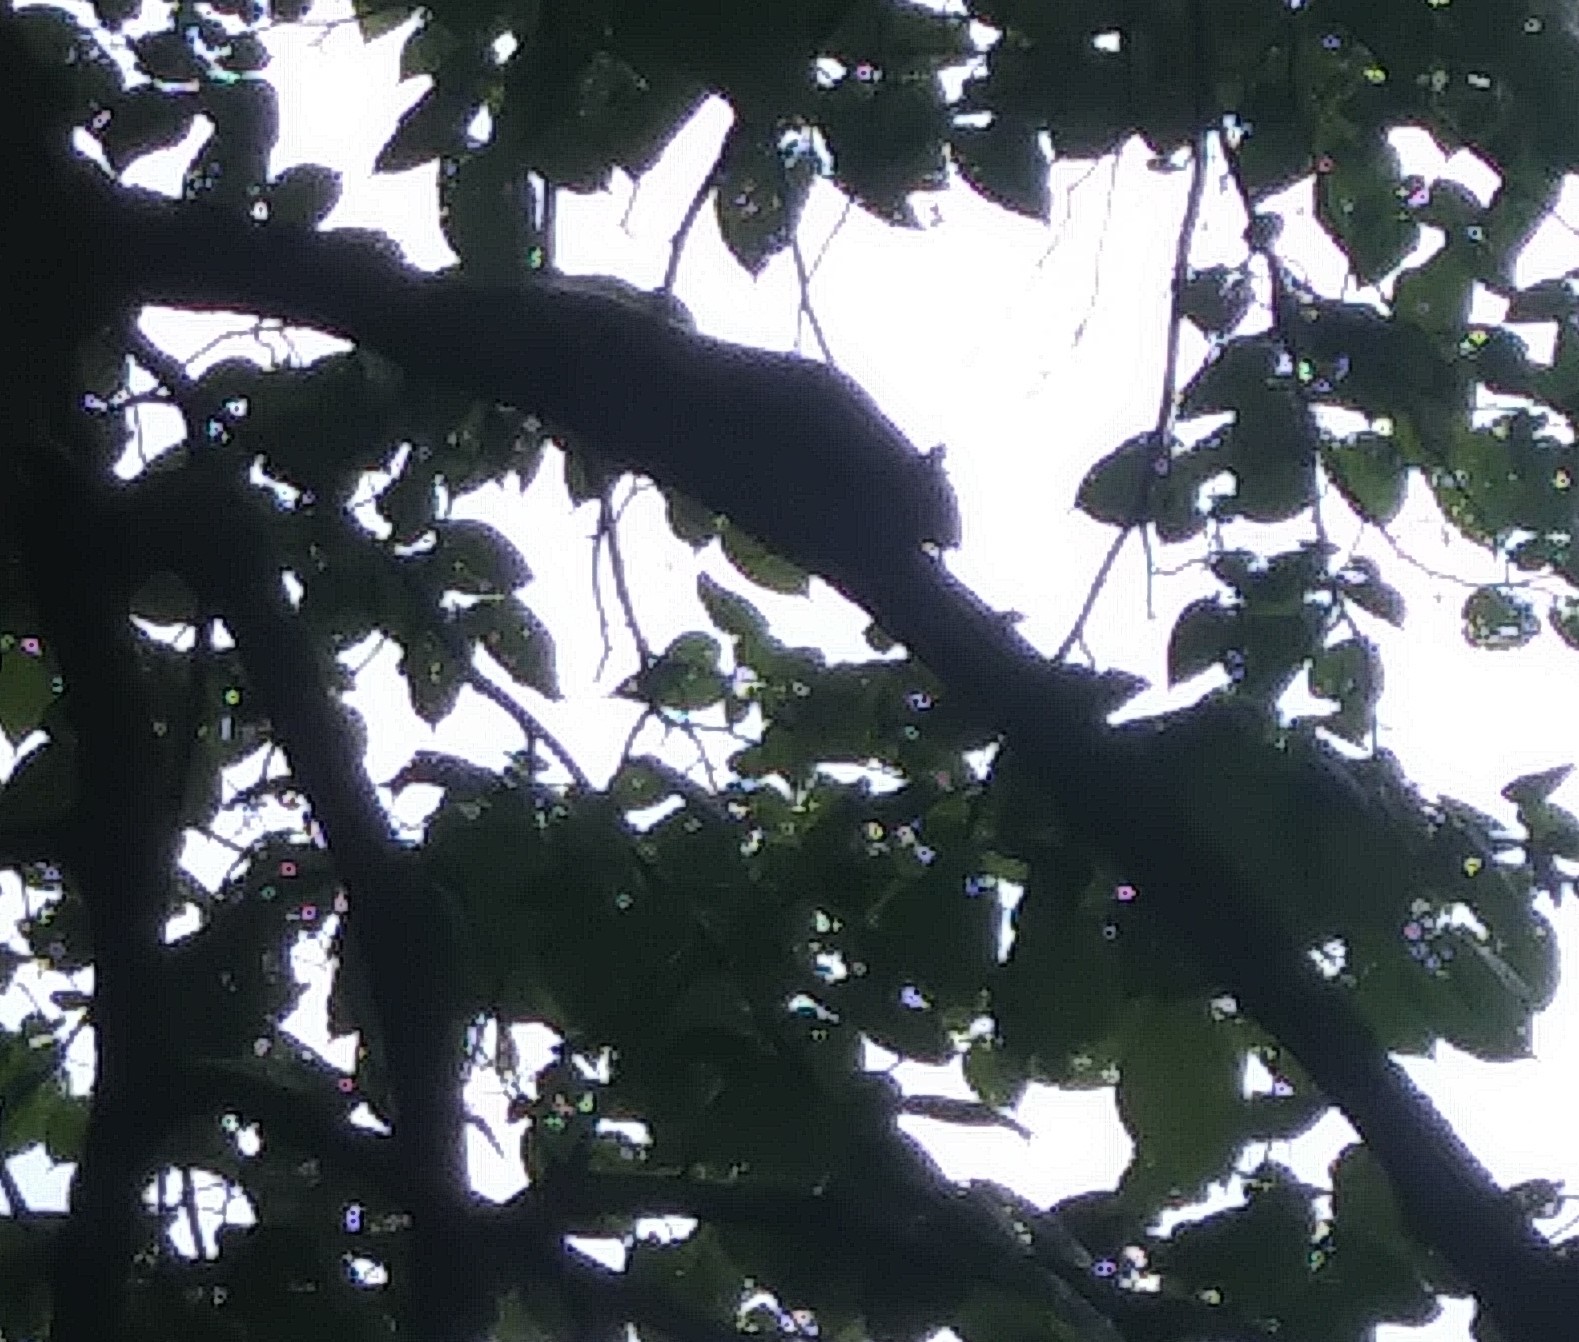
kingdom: Animalia
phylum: Chordata
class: Mammalia
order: Rodentia
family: Sciuridae
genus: Sciurus
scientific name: Sciurus carolinensis
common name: Eastern gray squirrel
